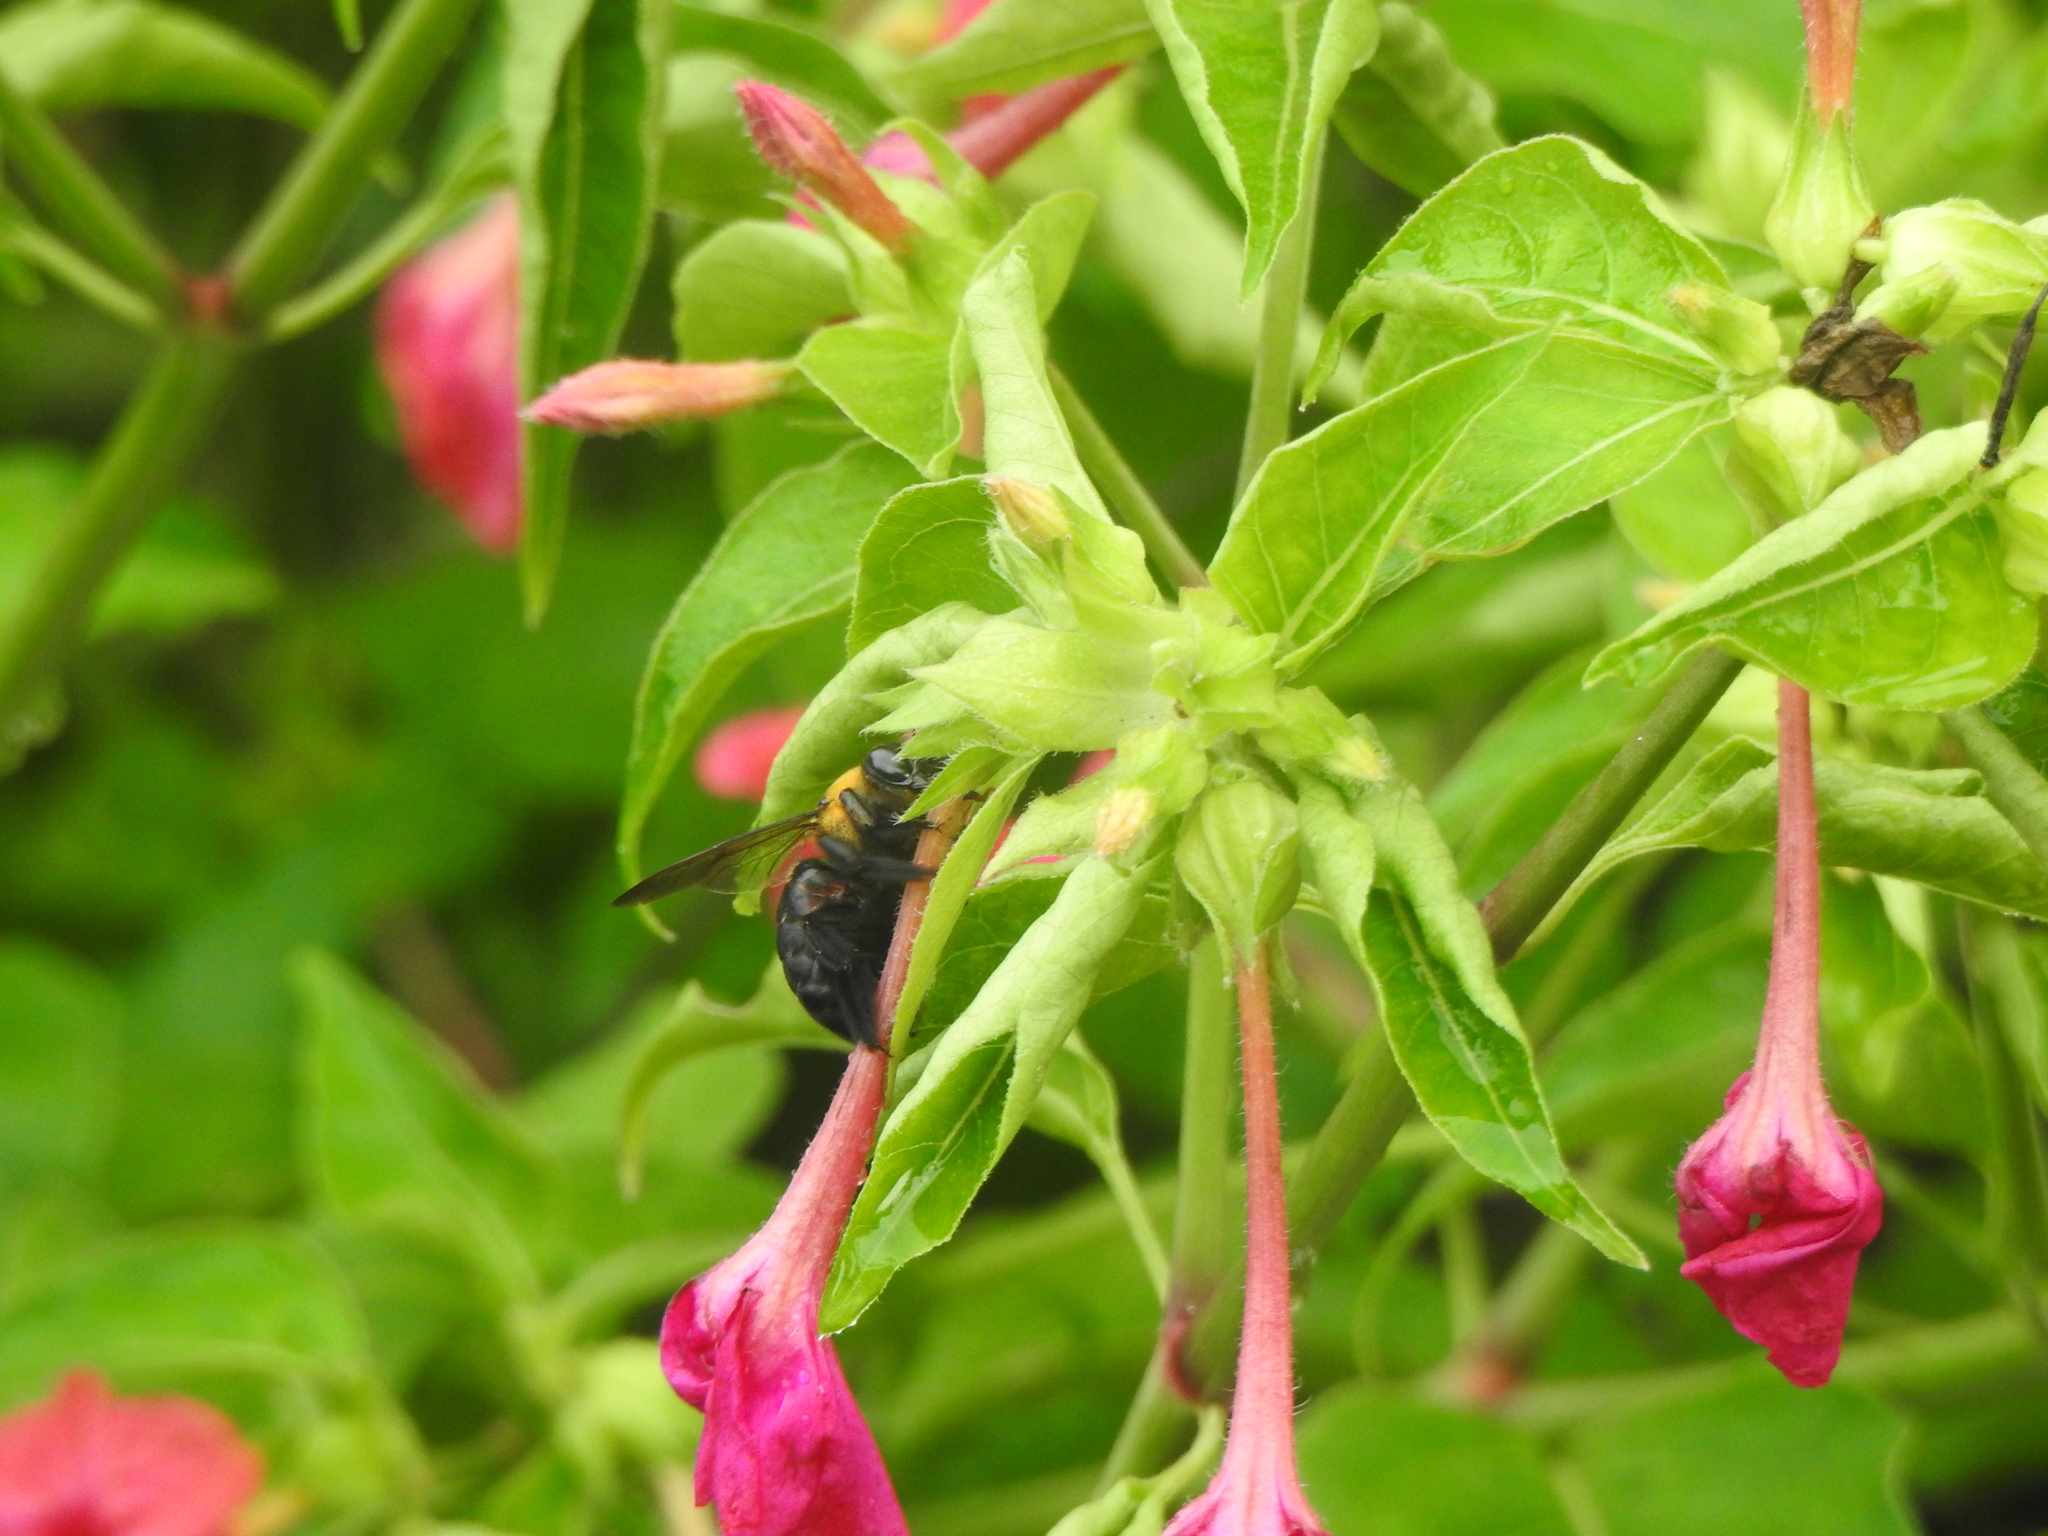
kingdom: Animalia
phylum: Arthropoda
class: Insecta
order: Hymenoptera
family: Apidae
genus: Xylocopa
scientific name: Xylocopa dejeanii
